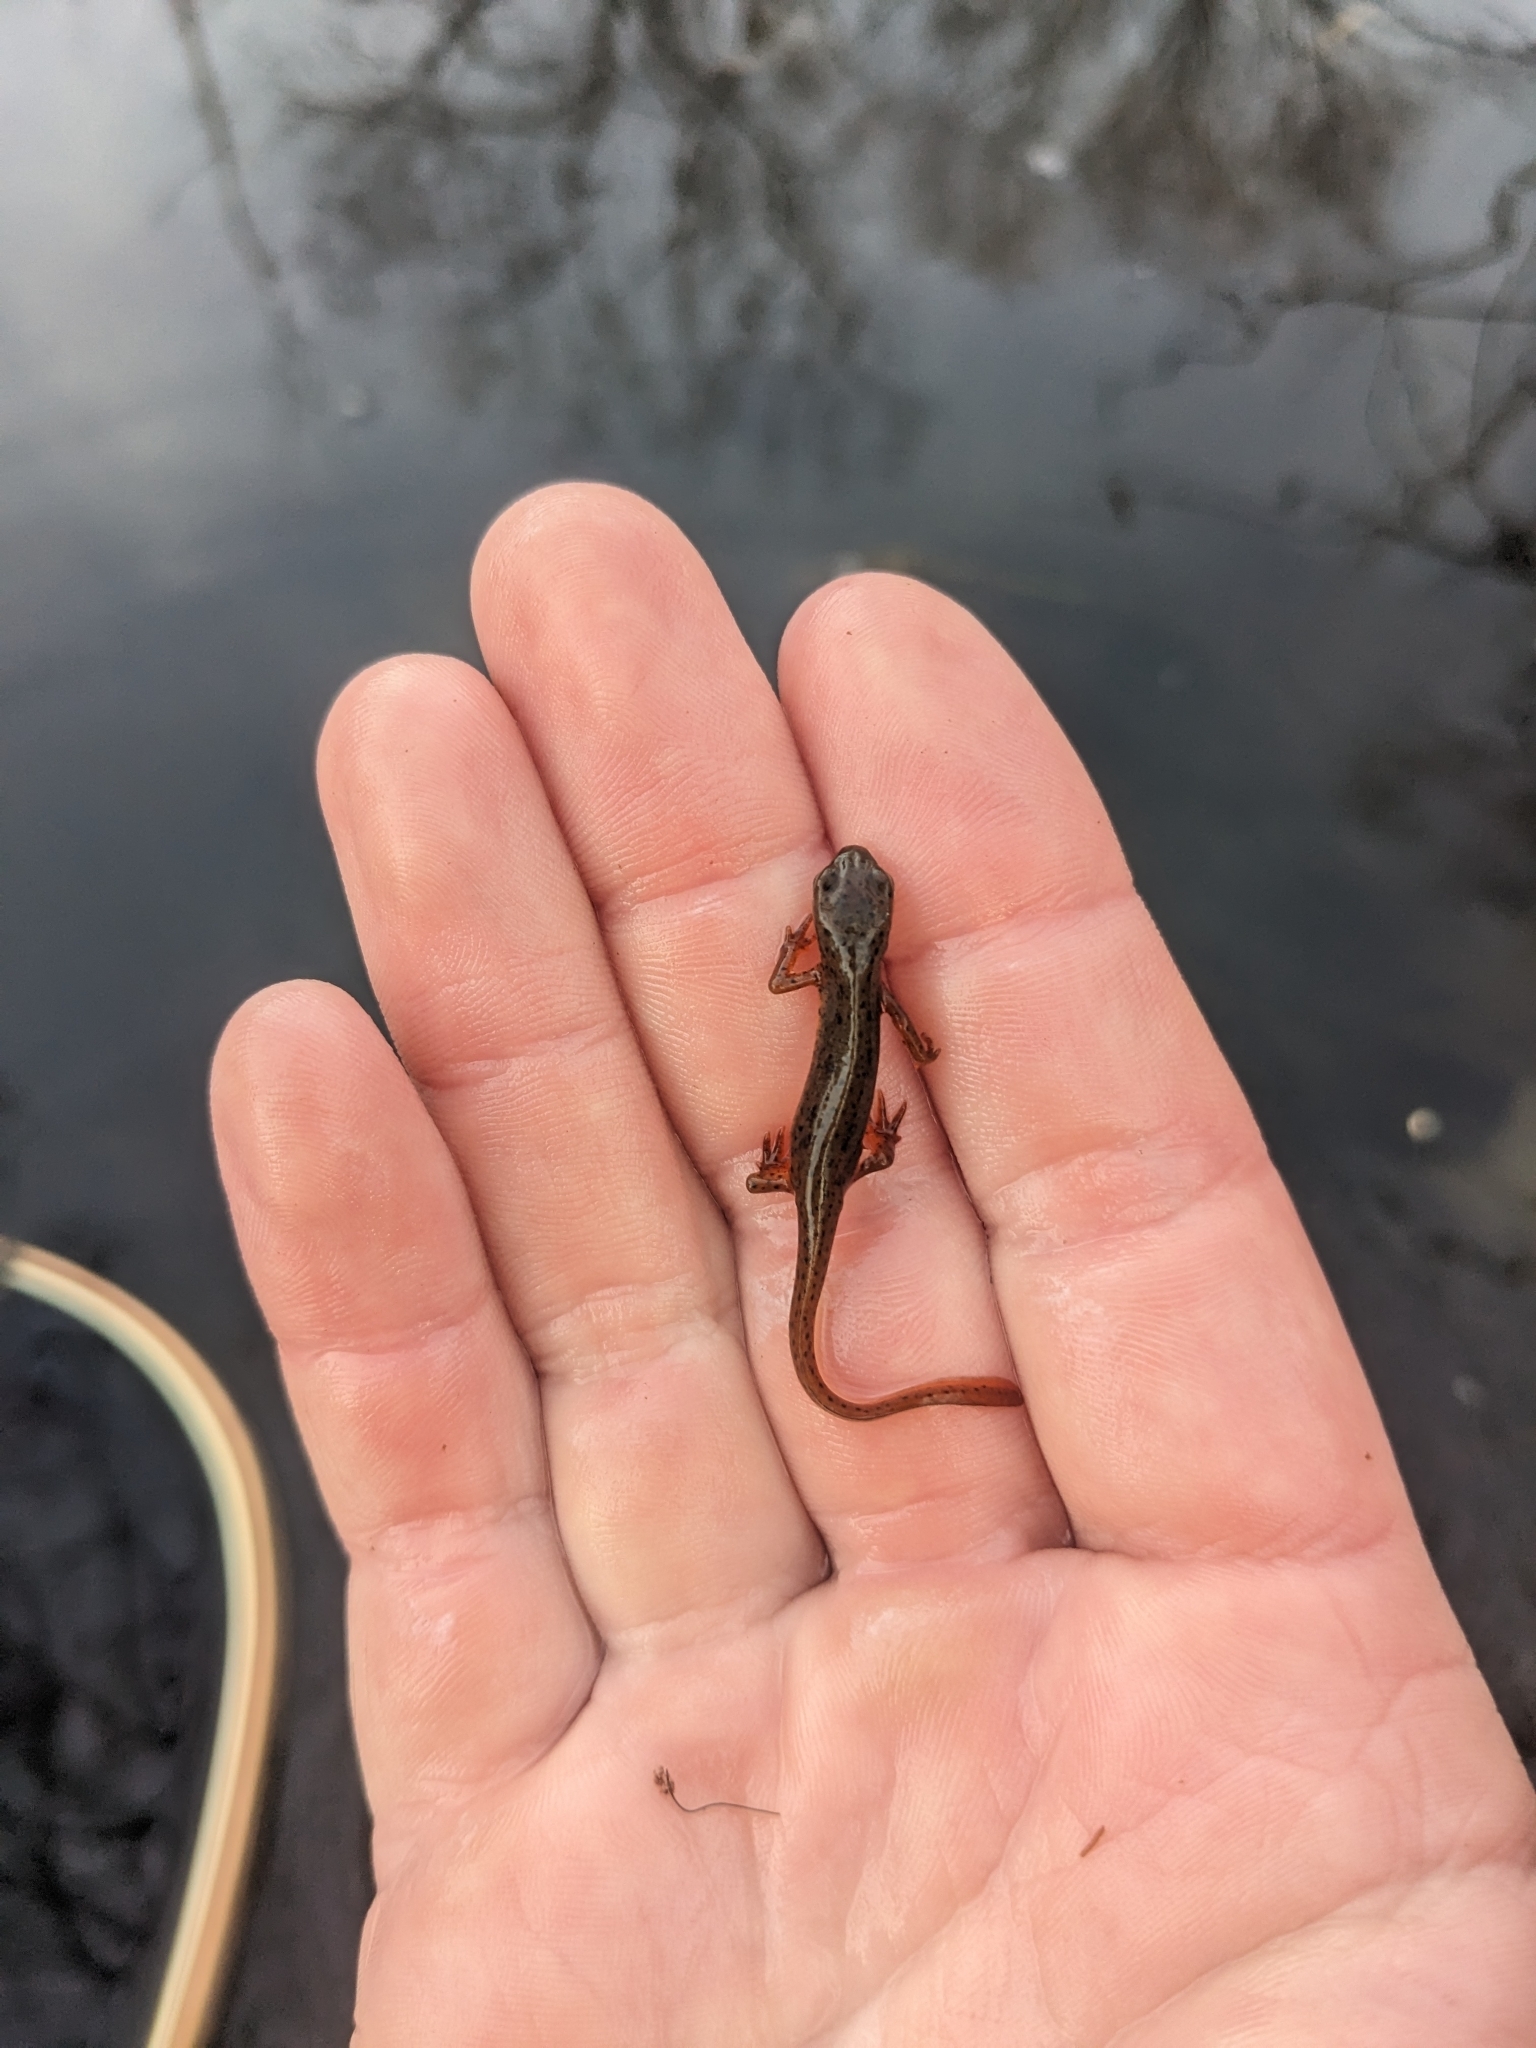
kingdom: Animalia
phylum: Chordata
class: Amphibia
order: Caudata
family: Salamandridae
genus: Notophthalmus
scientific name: Notophthalmus viridescens
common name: Eastern newt
